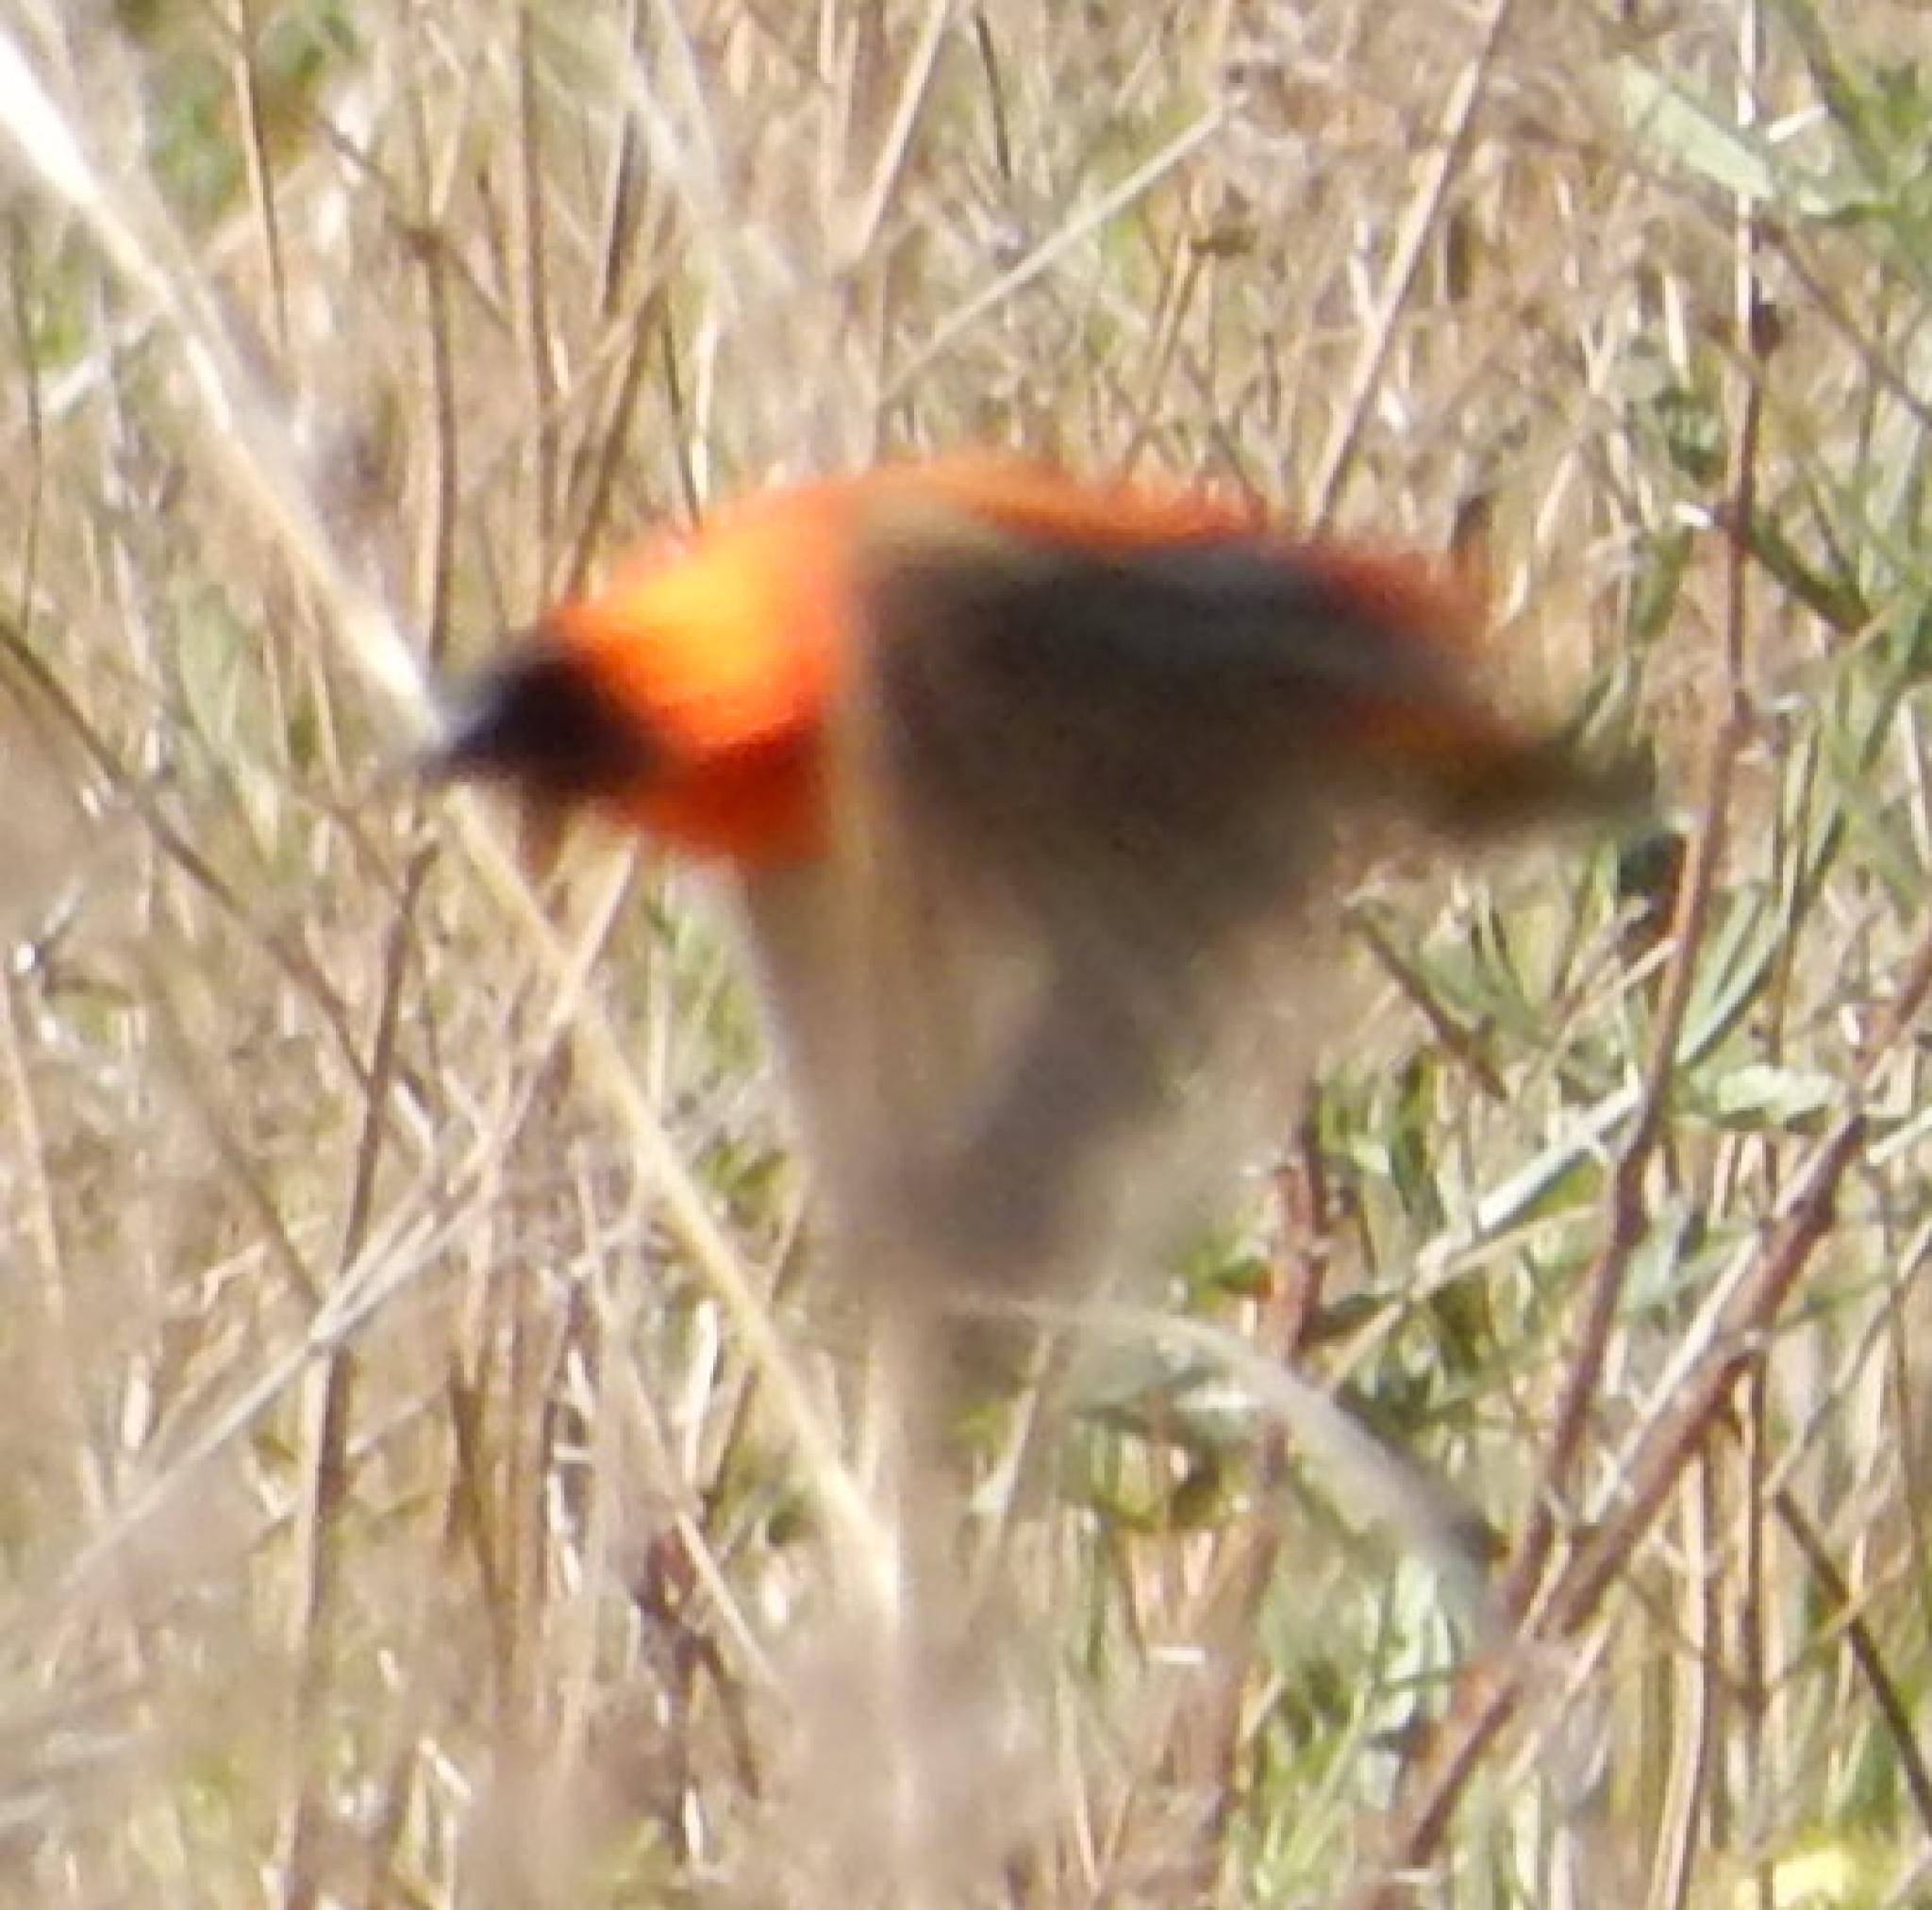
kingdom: Animalia
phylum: Chordata
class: Aves
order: Passeriformes
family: Ploceidae
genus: Euplectes
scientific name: Euplectes orix
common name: Southern red bishop
